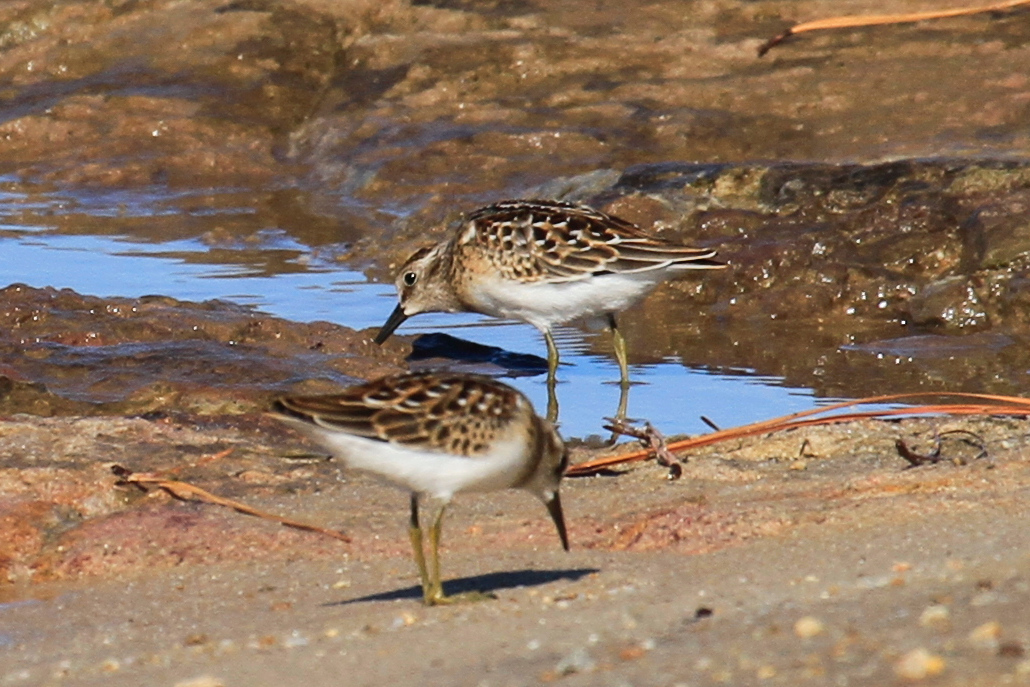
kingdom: Animalia
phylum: Chordata
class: Aves
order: Charadriiformes
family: Scolopacidae
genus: Calidris
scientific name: Calidris minutilla
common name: Least sandpiper
